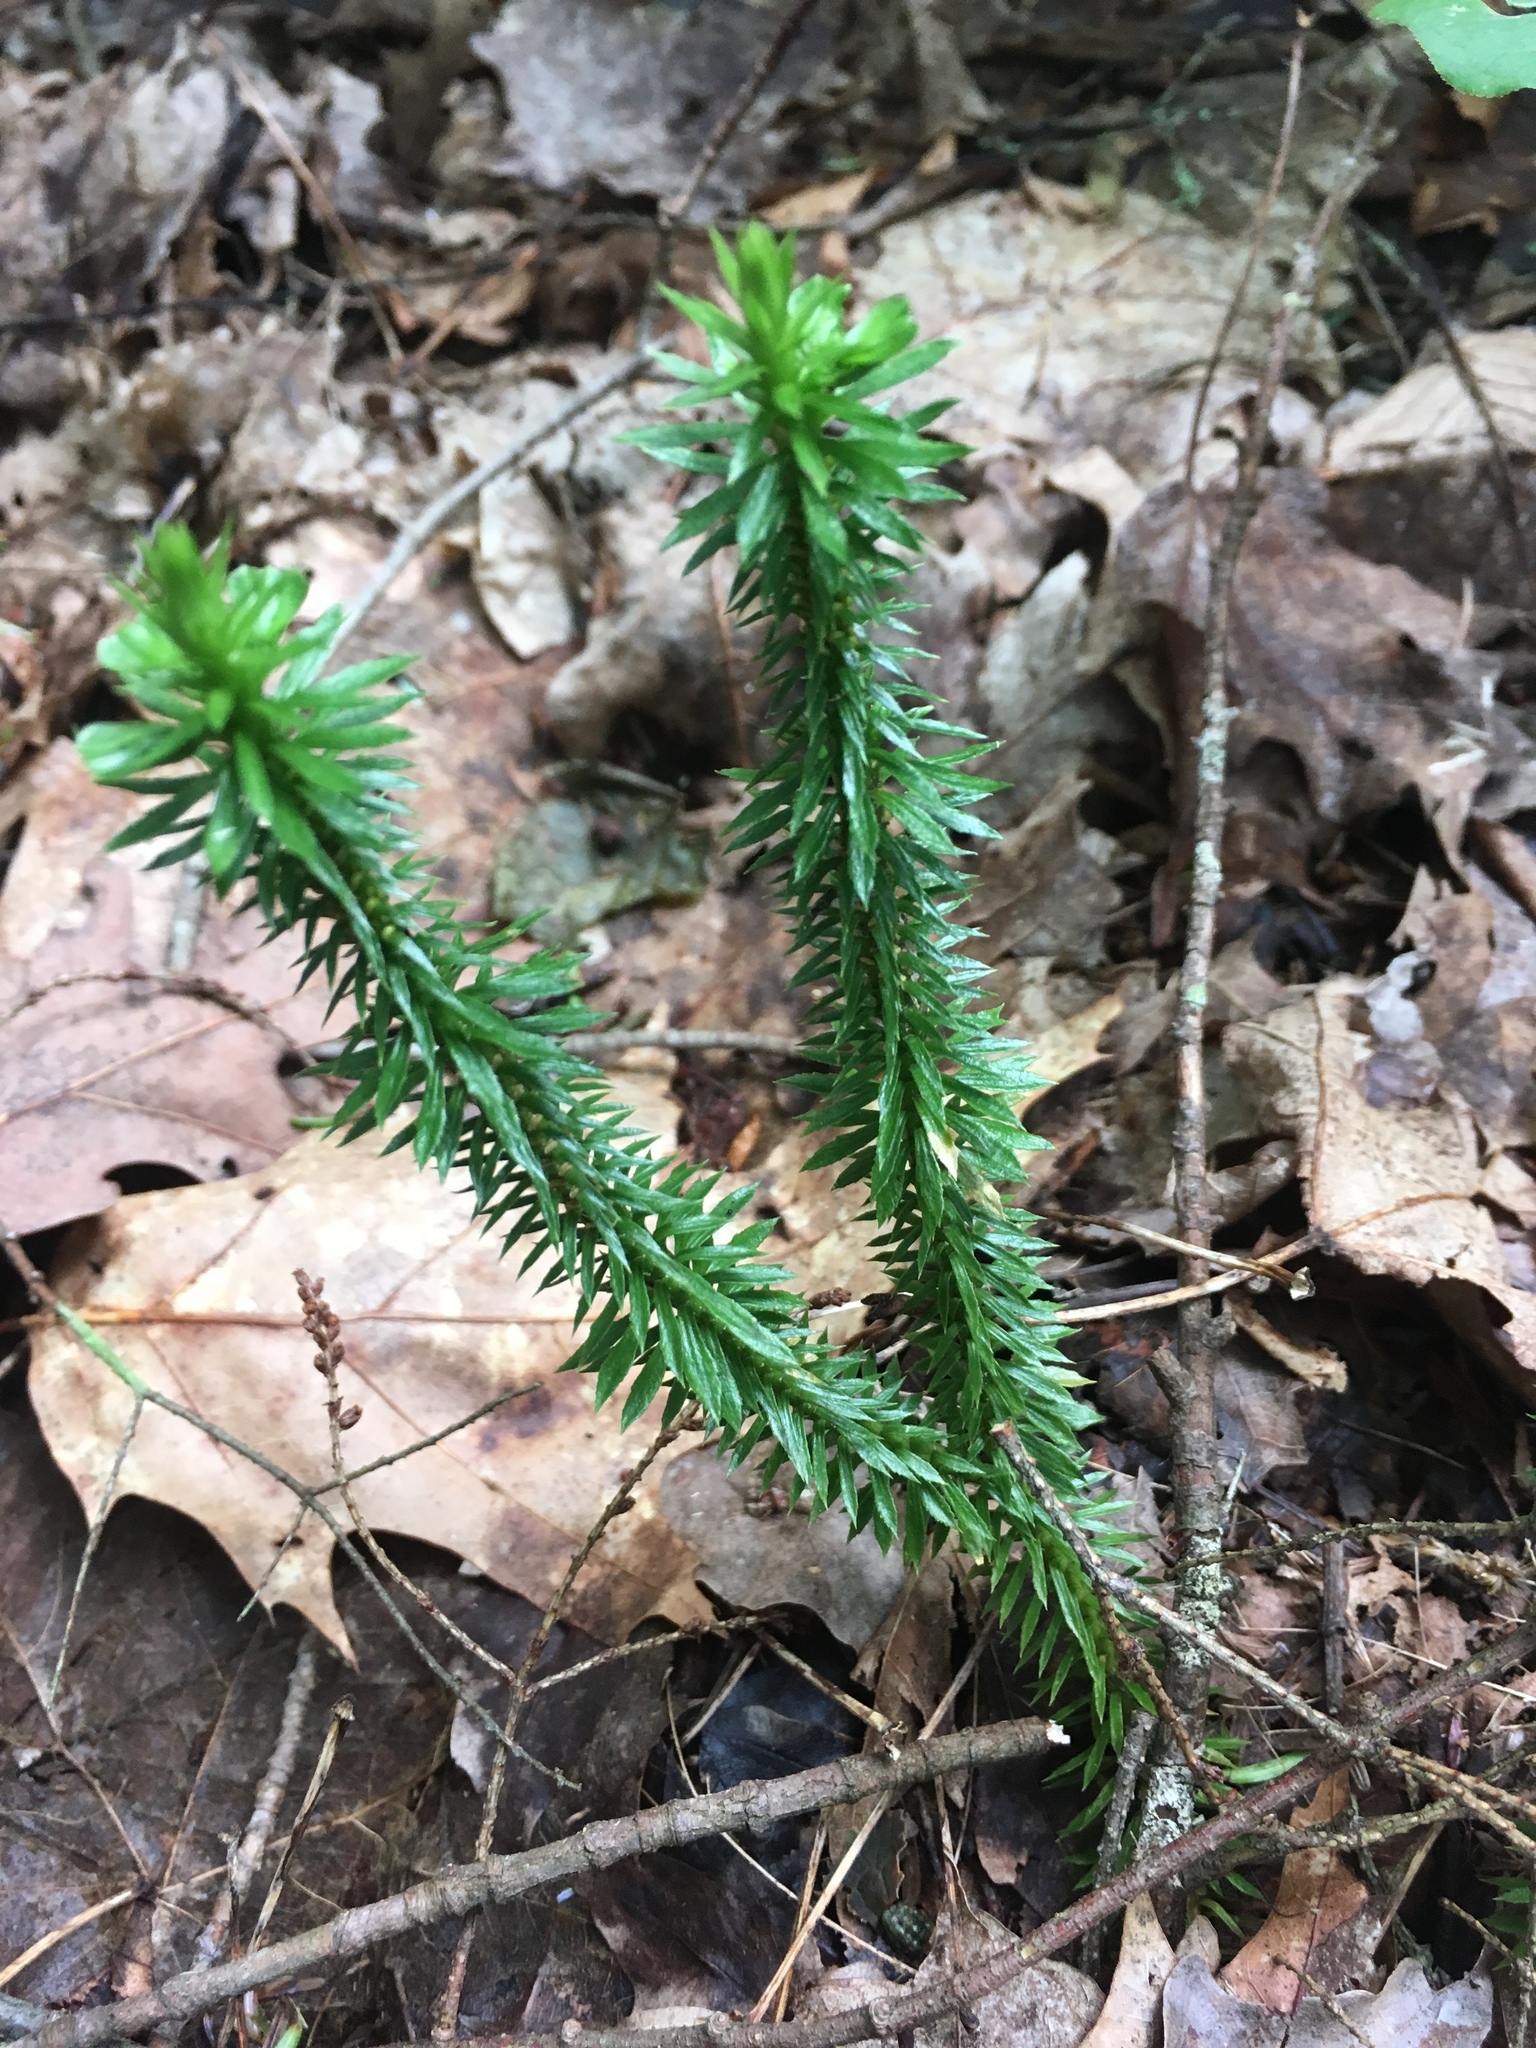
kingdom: Plantae
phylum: Tracheophyta
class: Lycopodiopsida
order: Lycopodiales
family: Lycopodiaceae
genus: Huperzia
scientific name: Huperzia lucidula
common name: Shining clubmoss
